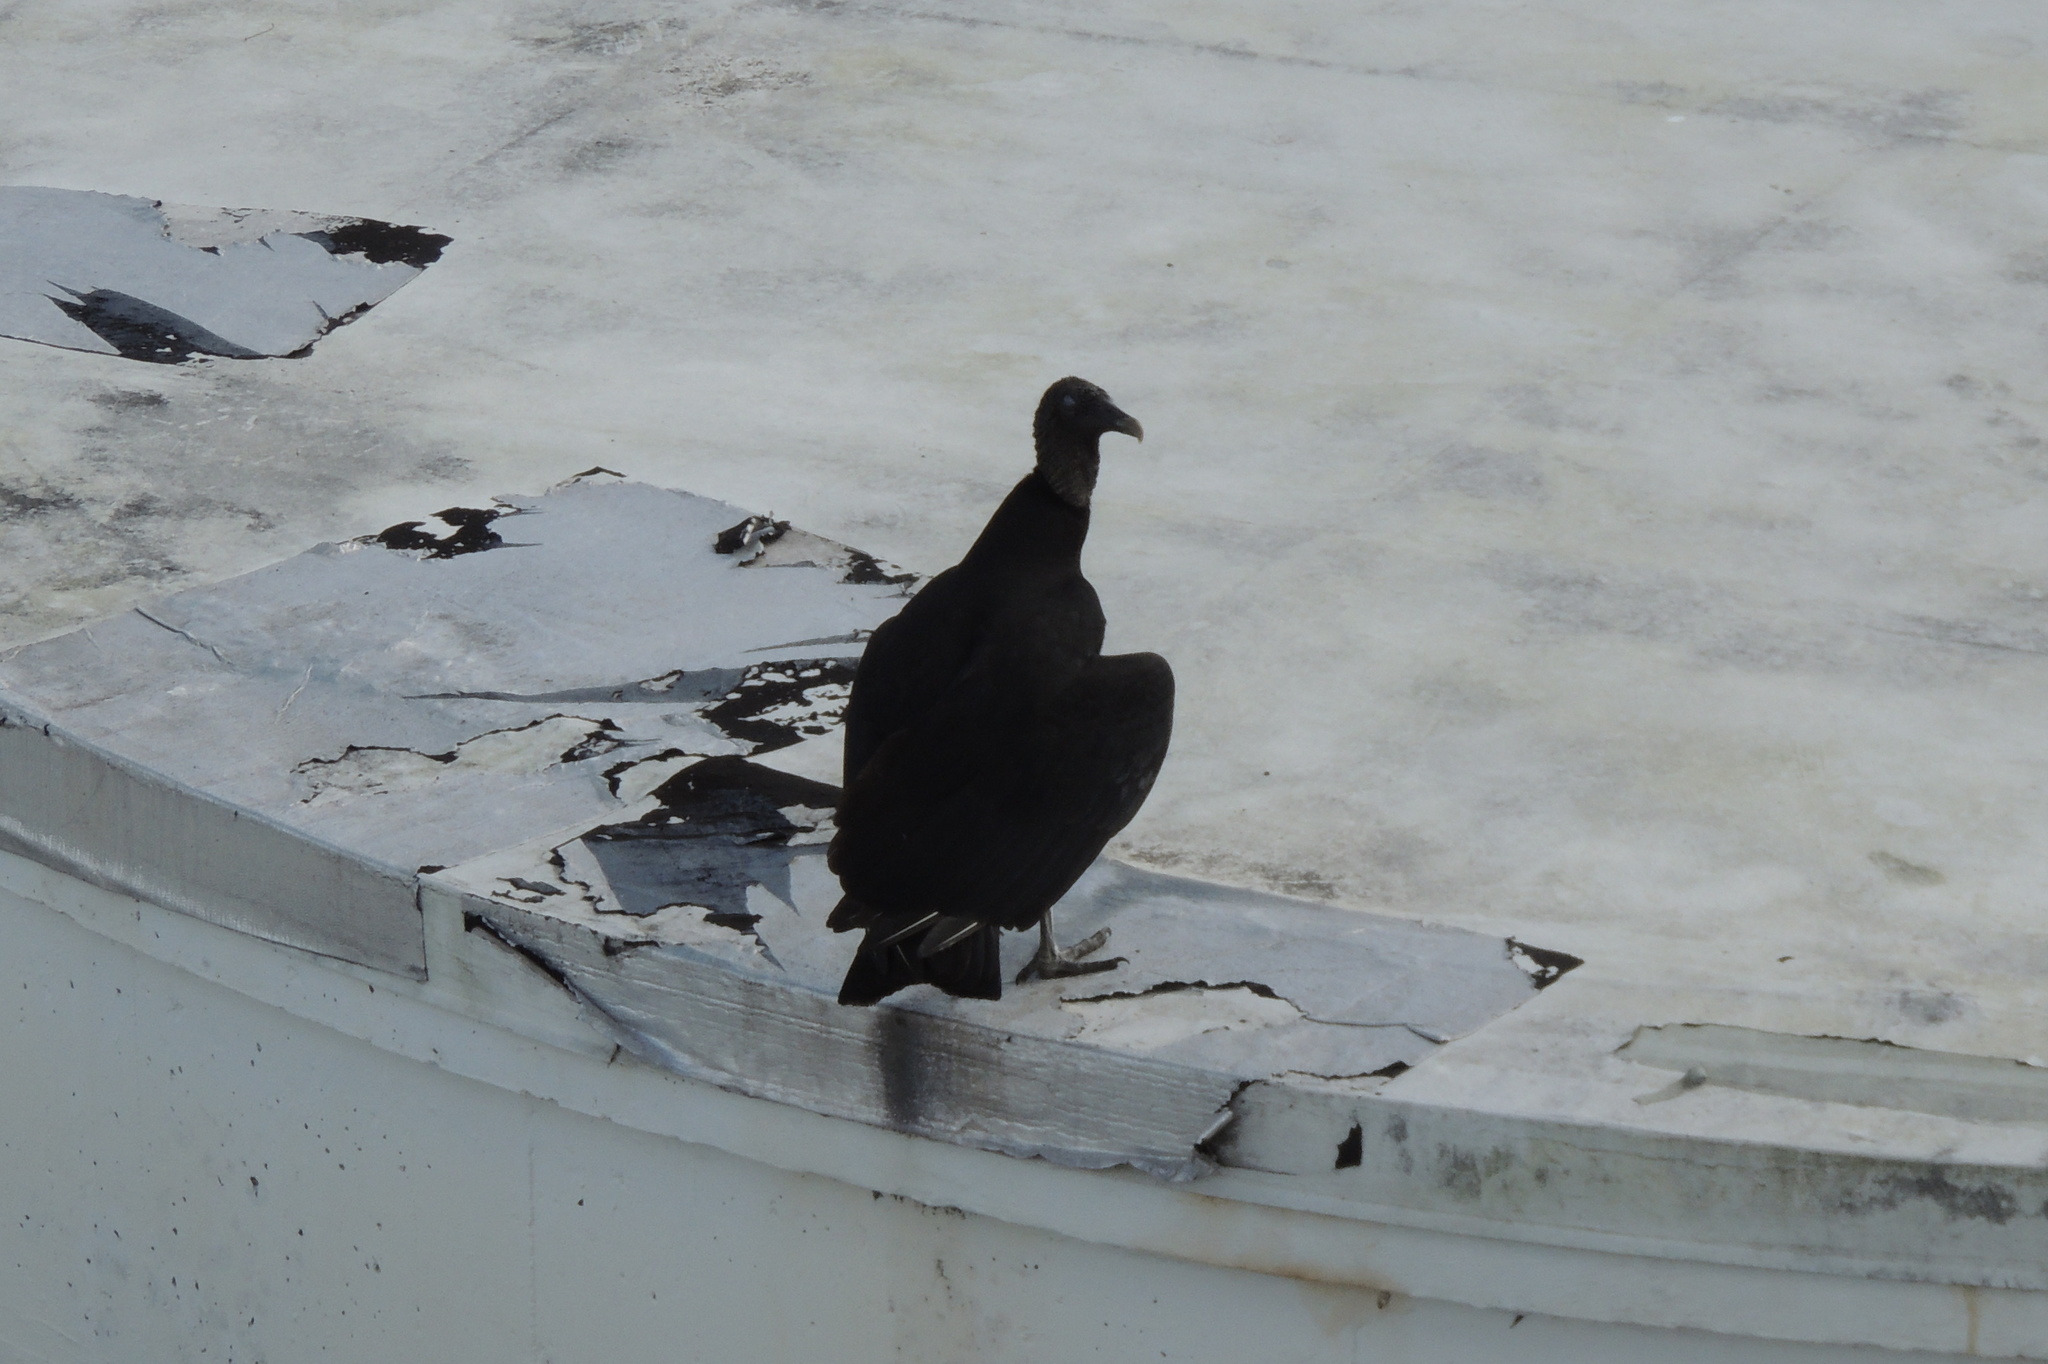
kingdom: Animalia
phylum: Chordata
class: Aves
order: Accipitriformes
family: Cathartidae
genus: Coragyps
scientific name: Coragyps atratus
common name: Black vulture
